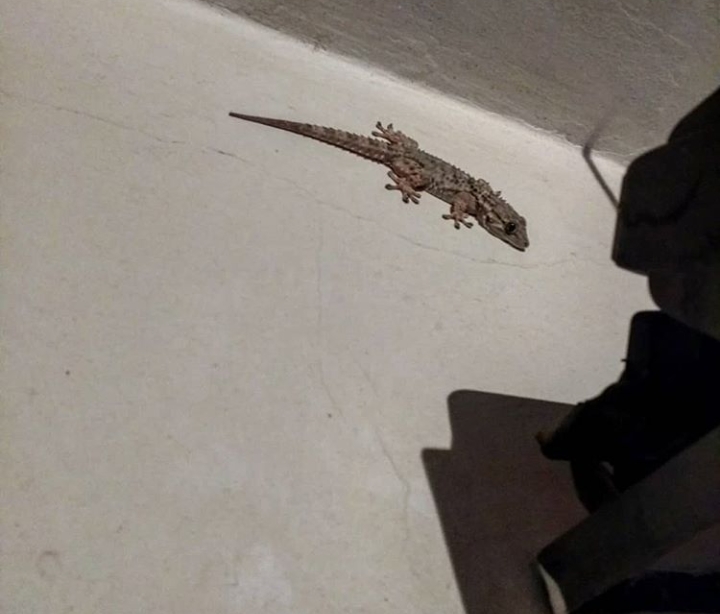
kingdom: Animalia
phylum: Chordata
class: Squamata
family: Phyllodactylidae
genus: Tarentola
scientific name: Tarentola mauritanica
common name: Moorish gecko
